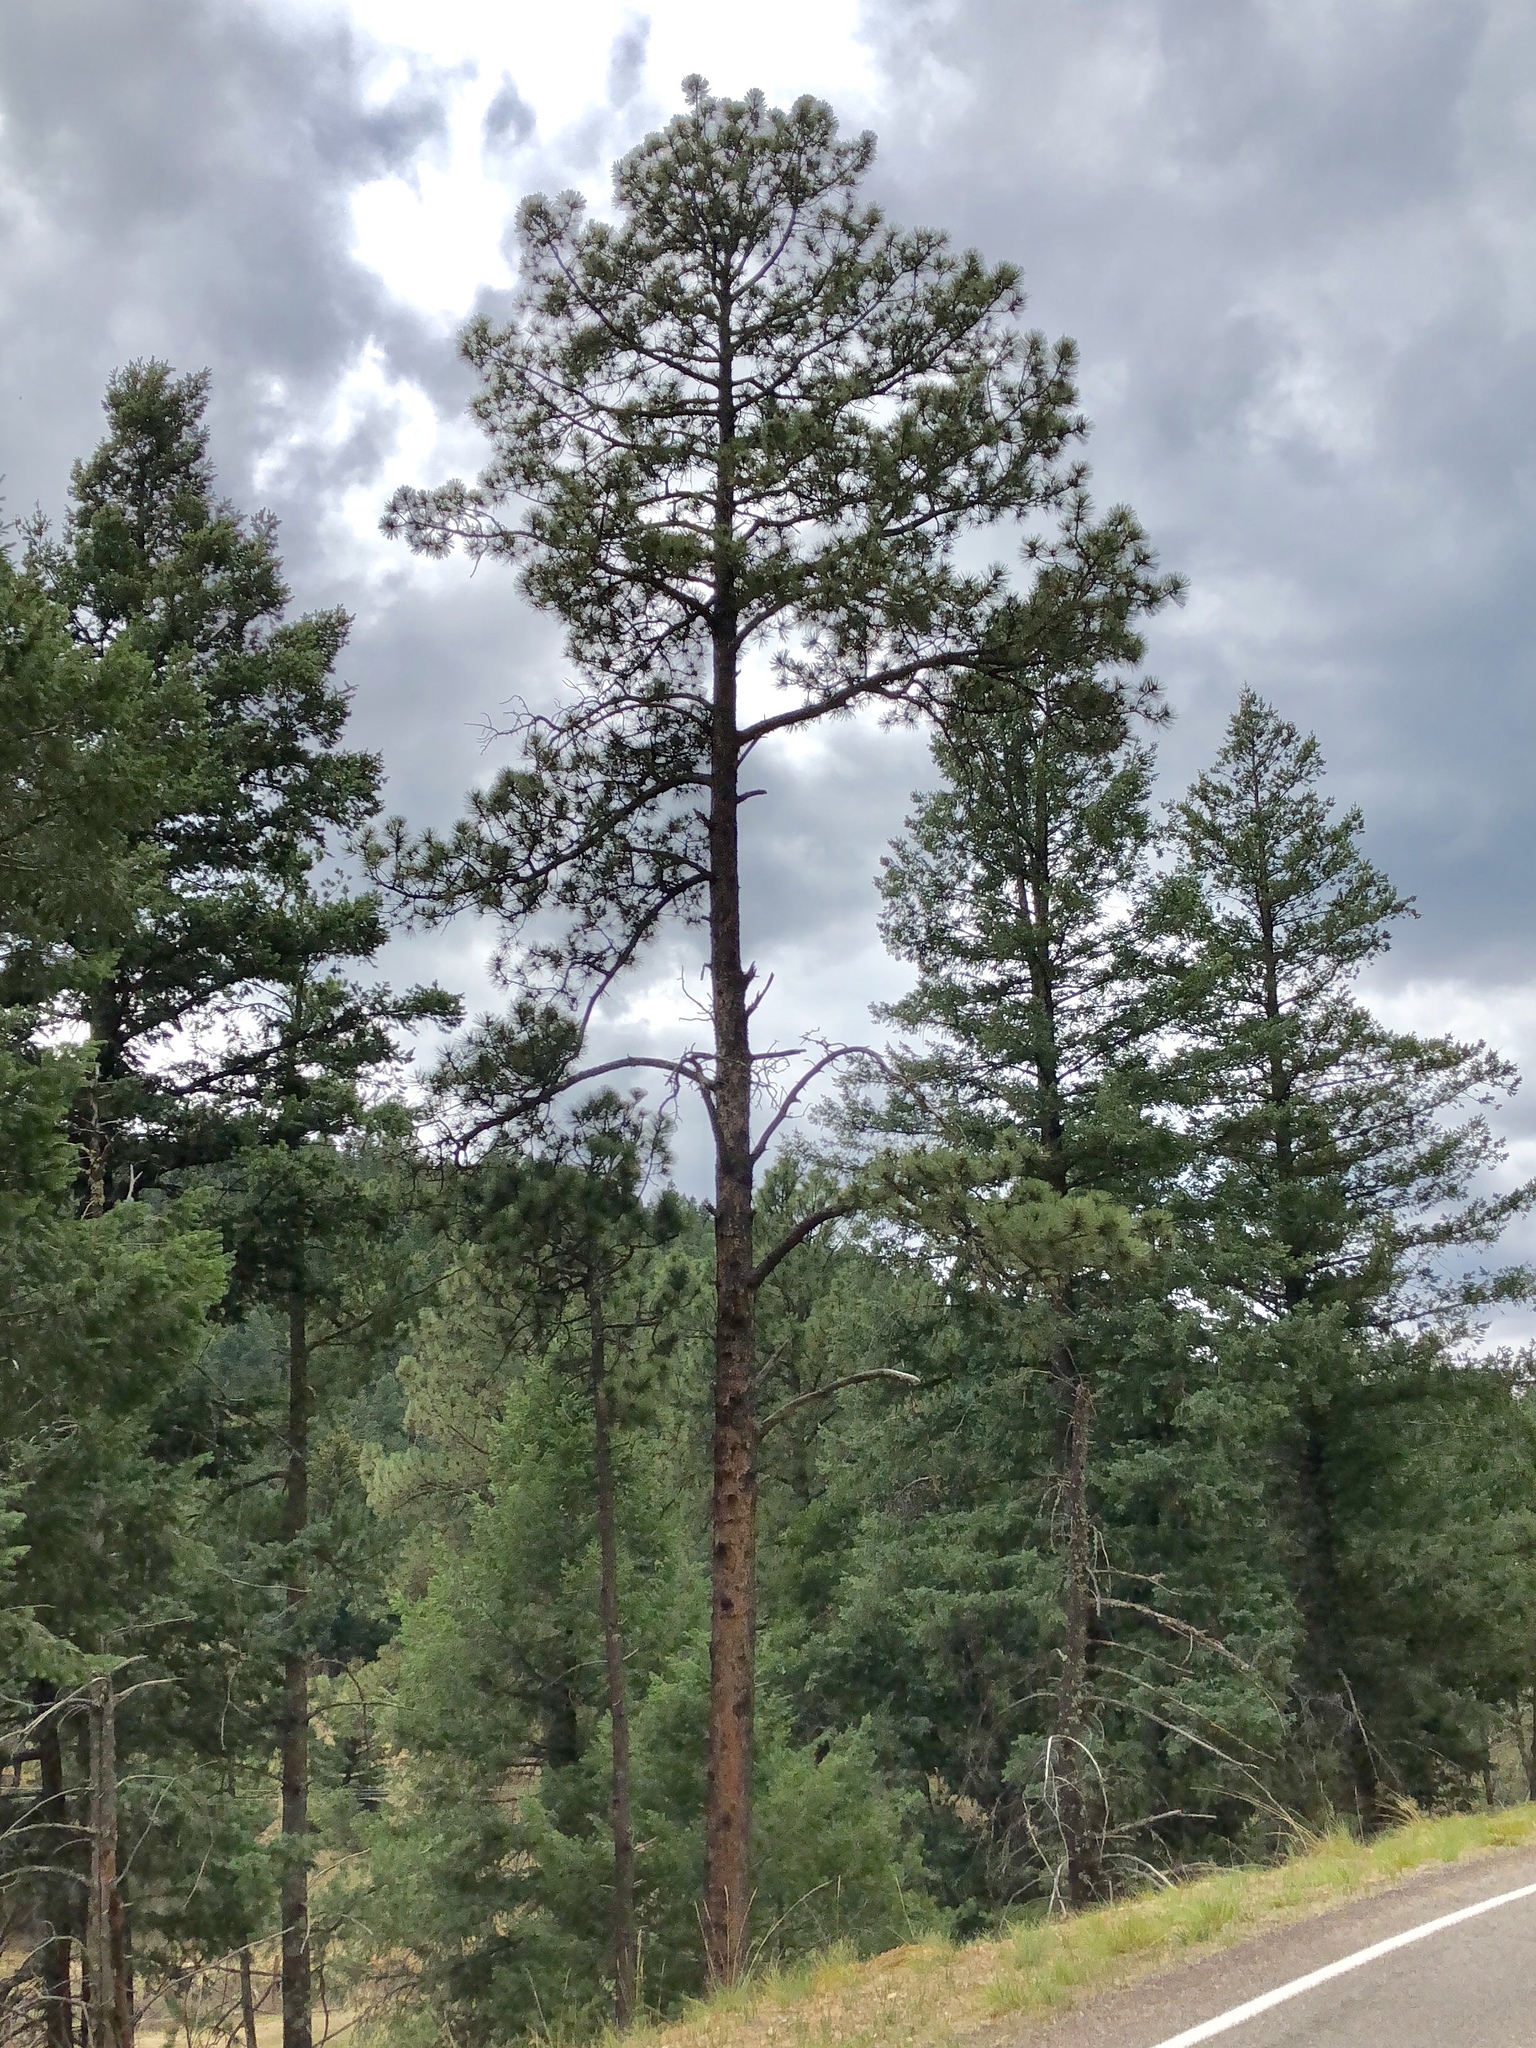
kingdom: Plantae
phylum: Tracheophyta
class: Pinopsida
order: Pinales
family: Pinaceae
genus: Pinus
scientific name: Pinus ponderosa
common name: Western yellow-pine
